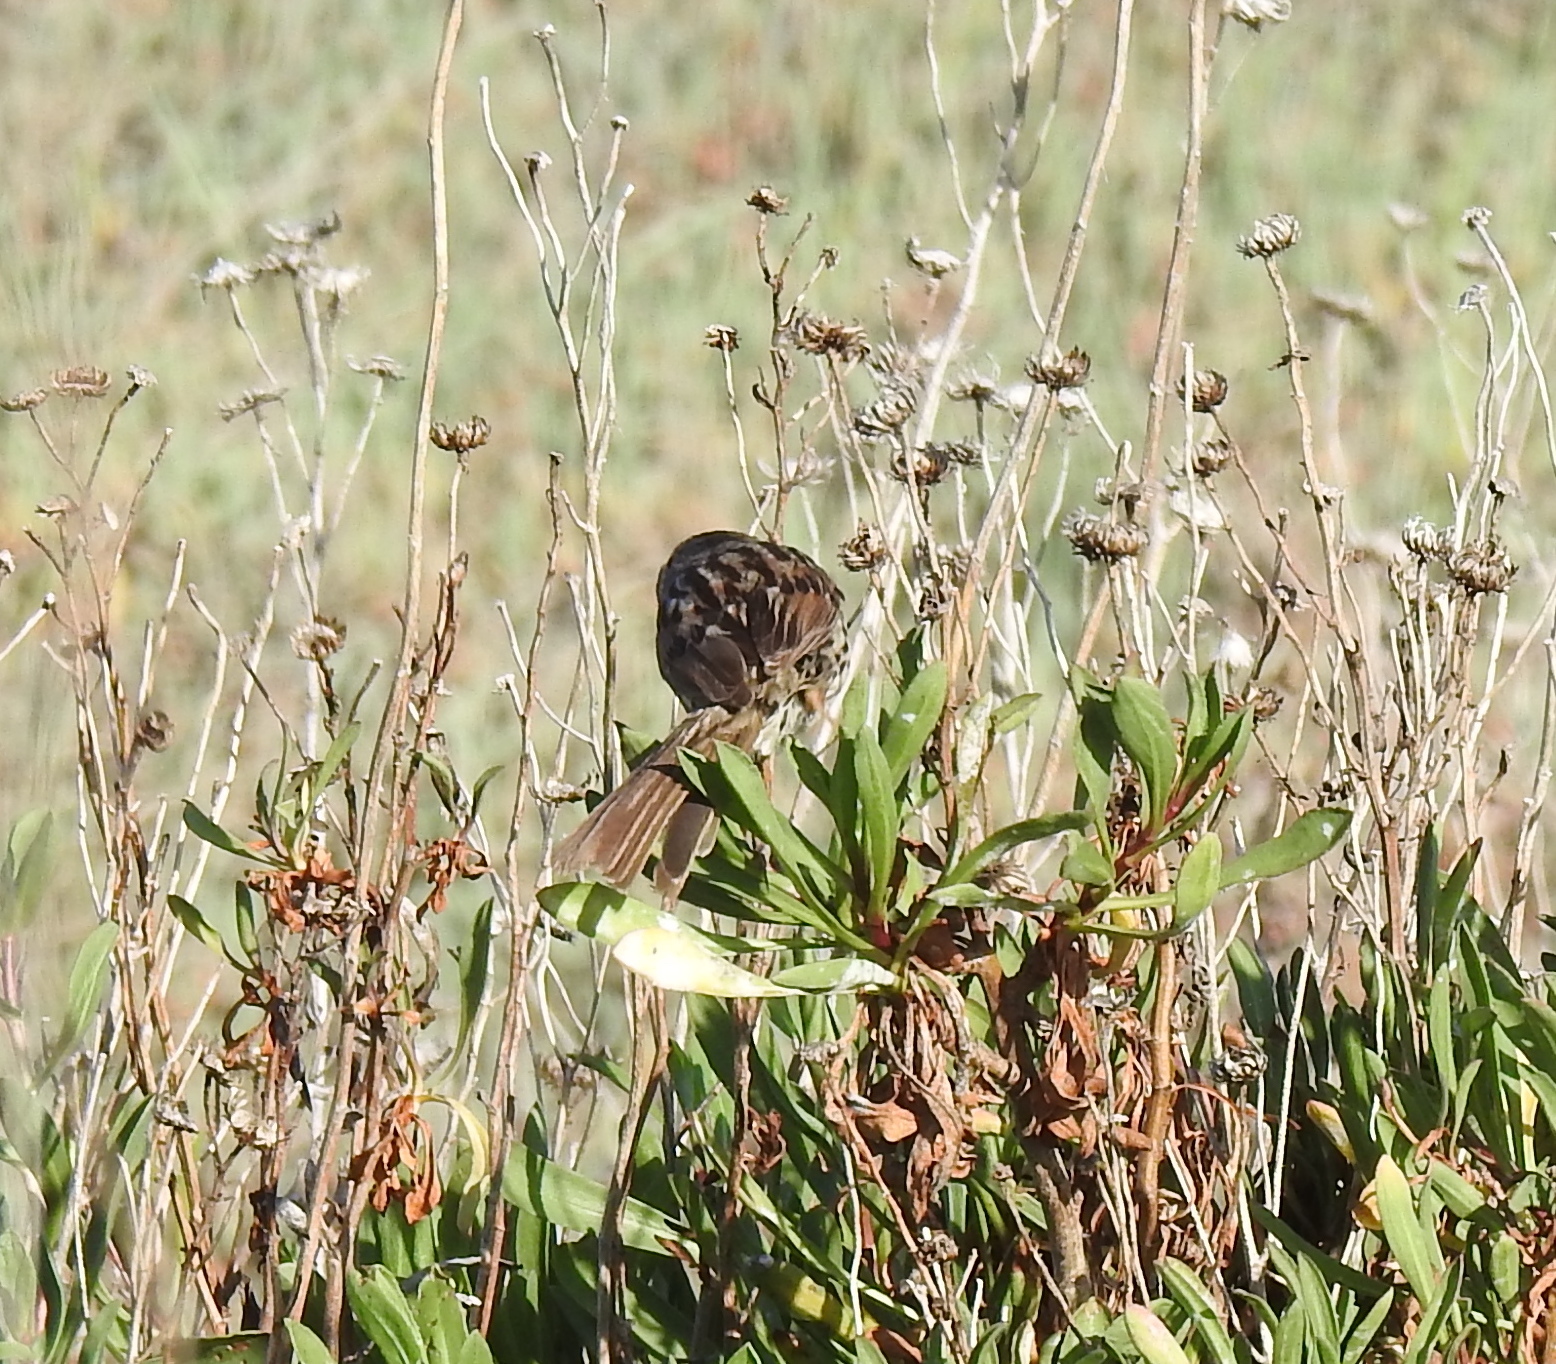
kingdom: Animalia
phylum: Chordata
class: Aves
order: Passeriformes
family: Passerellidae
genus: Melospiza
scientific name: Melospiza melodia
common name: Song sparrow
